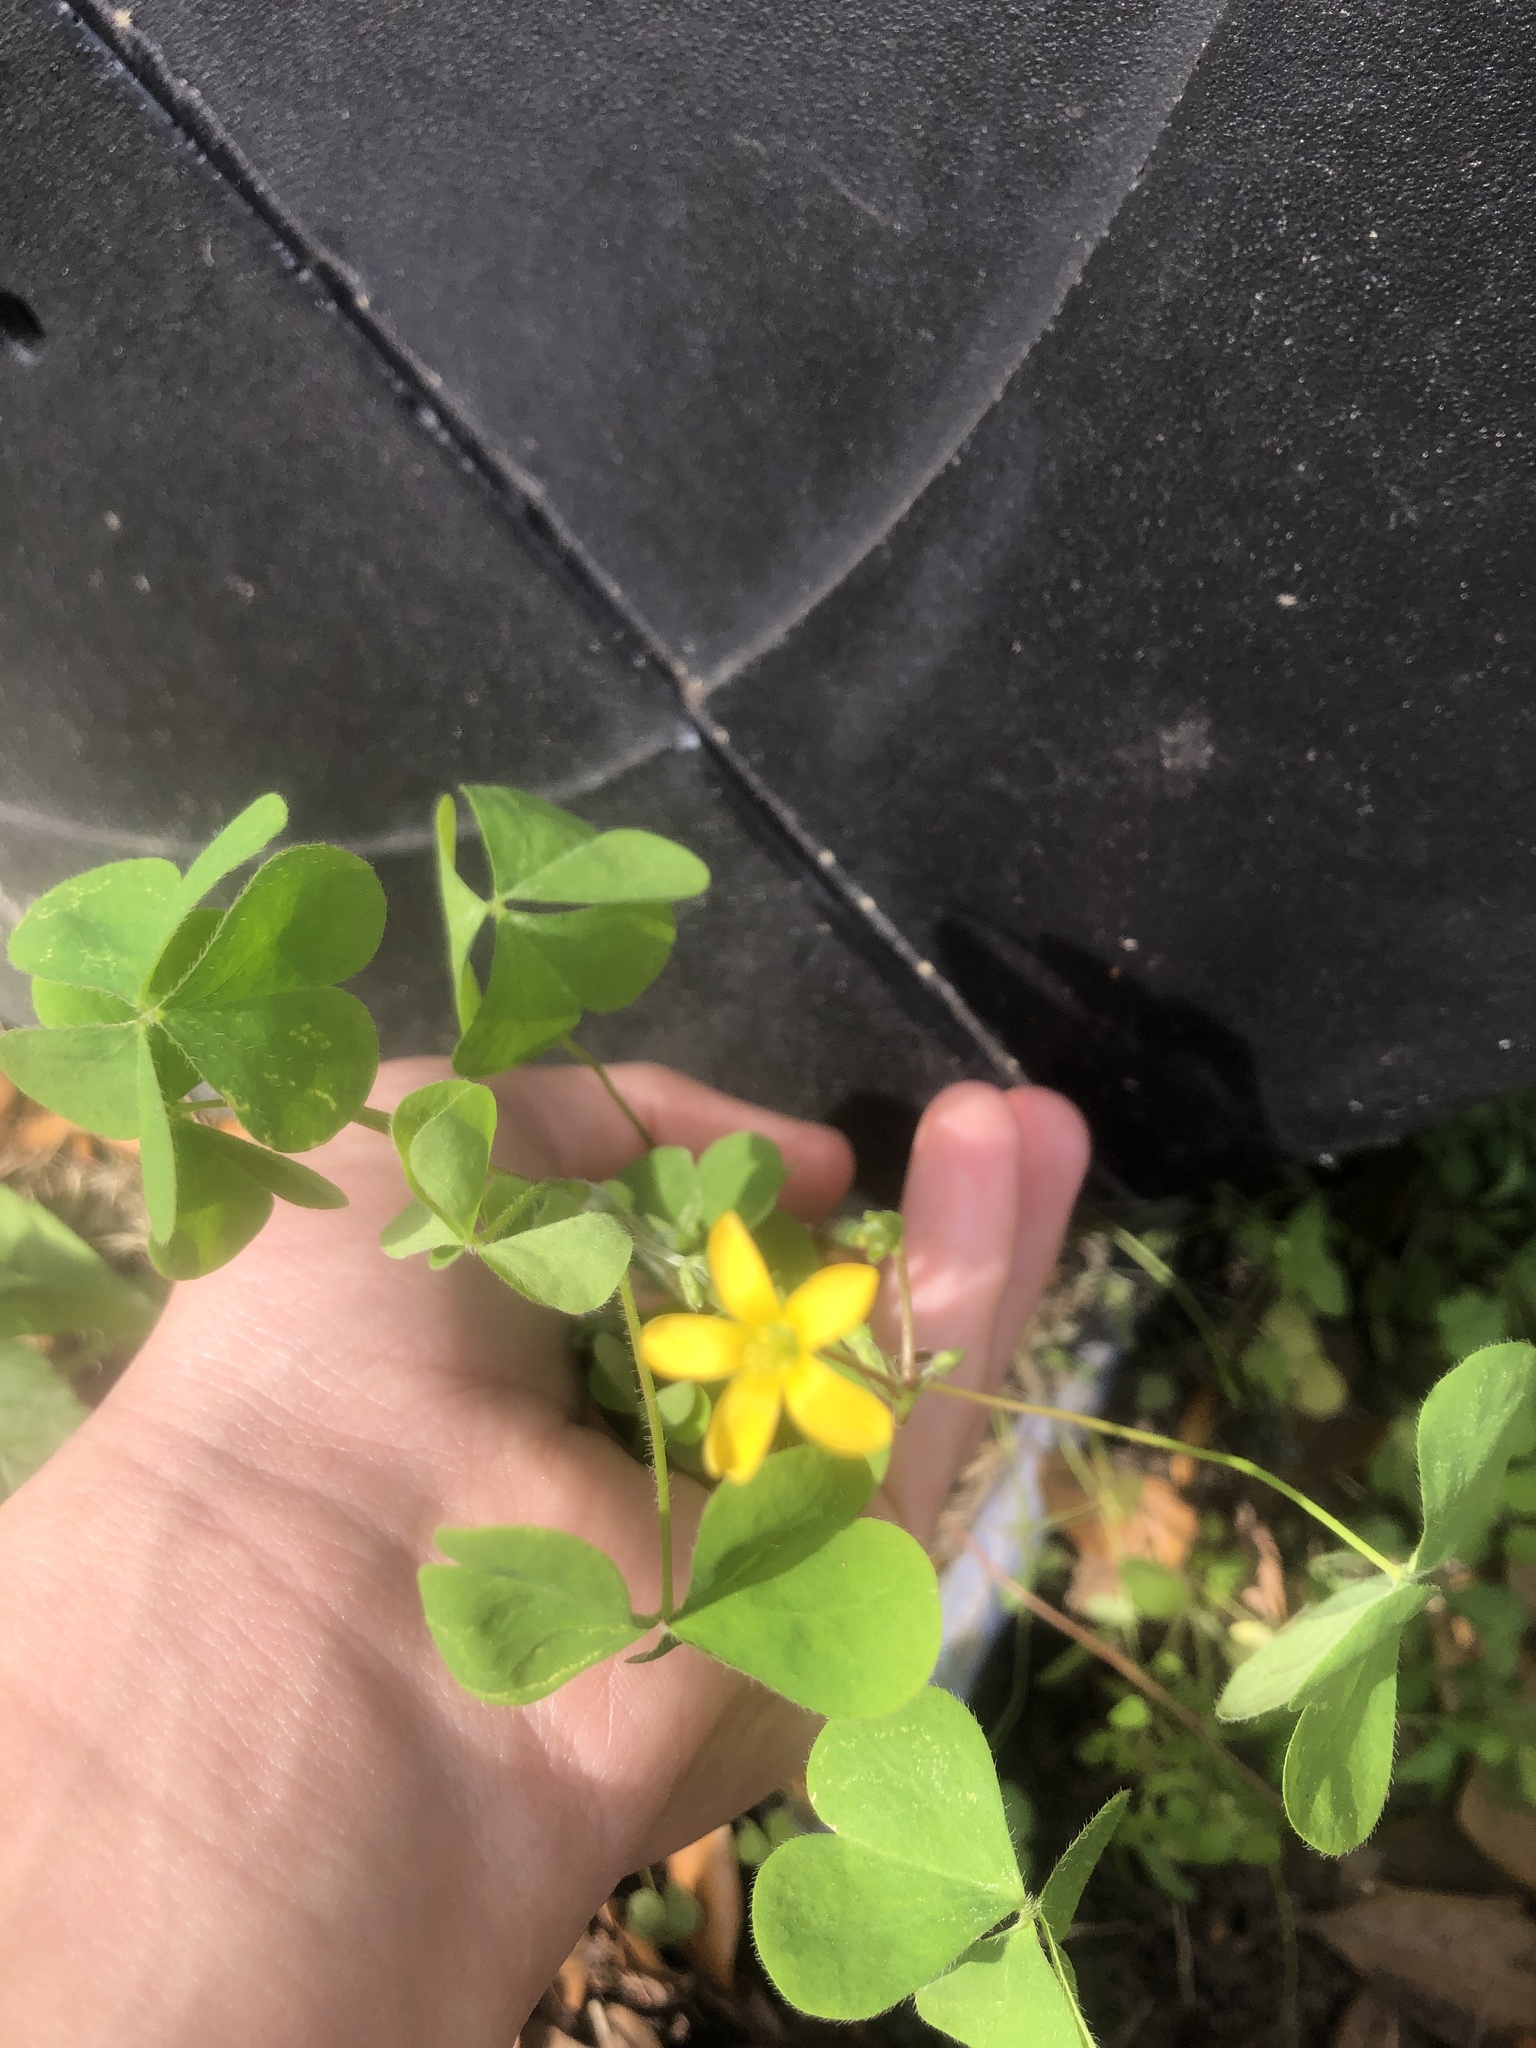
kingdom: Plantae
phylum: Tracheophyta
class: Magnoliopsida
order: Oxalidales
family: Oxalidaceae
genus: Oxalis
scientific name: Oxalis corniculata
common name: Procumbent yellow-sorrel
